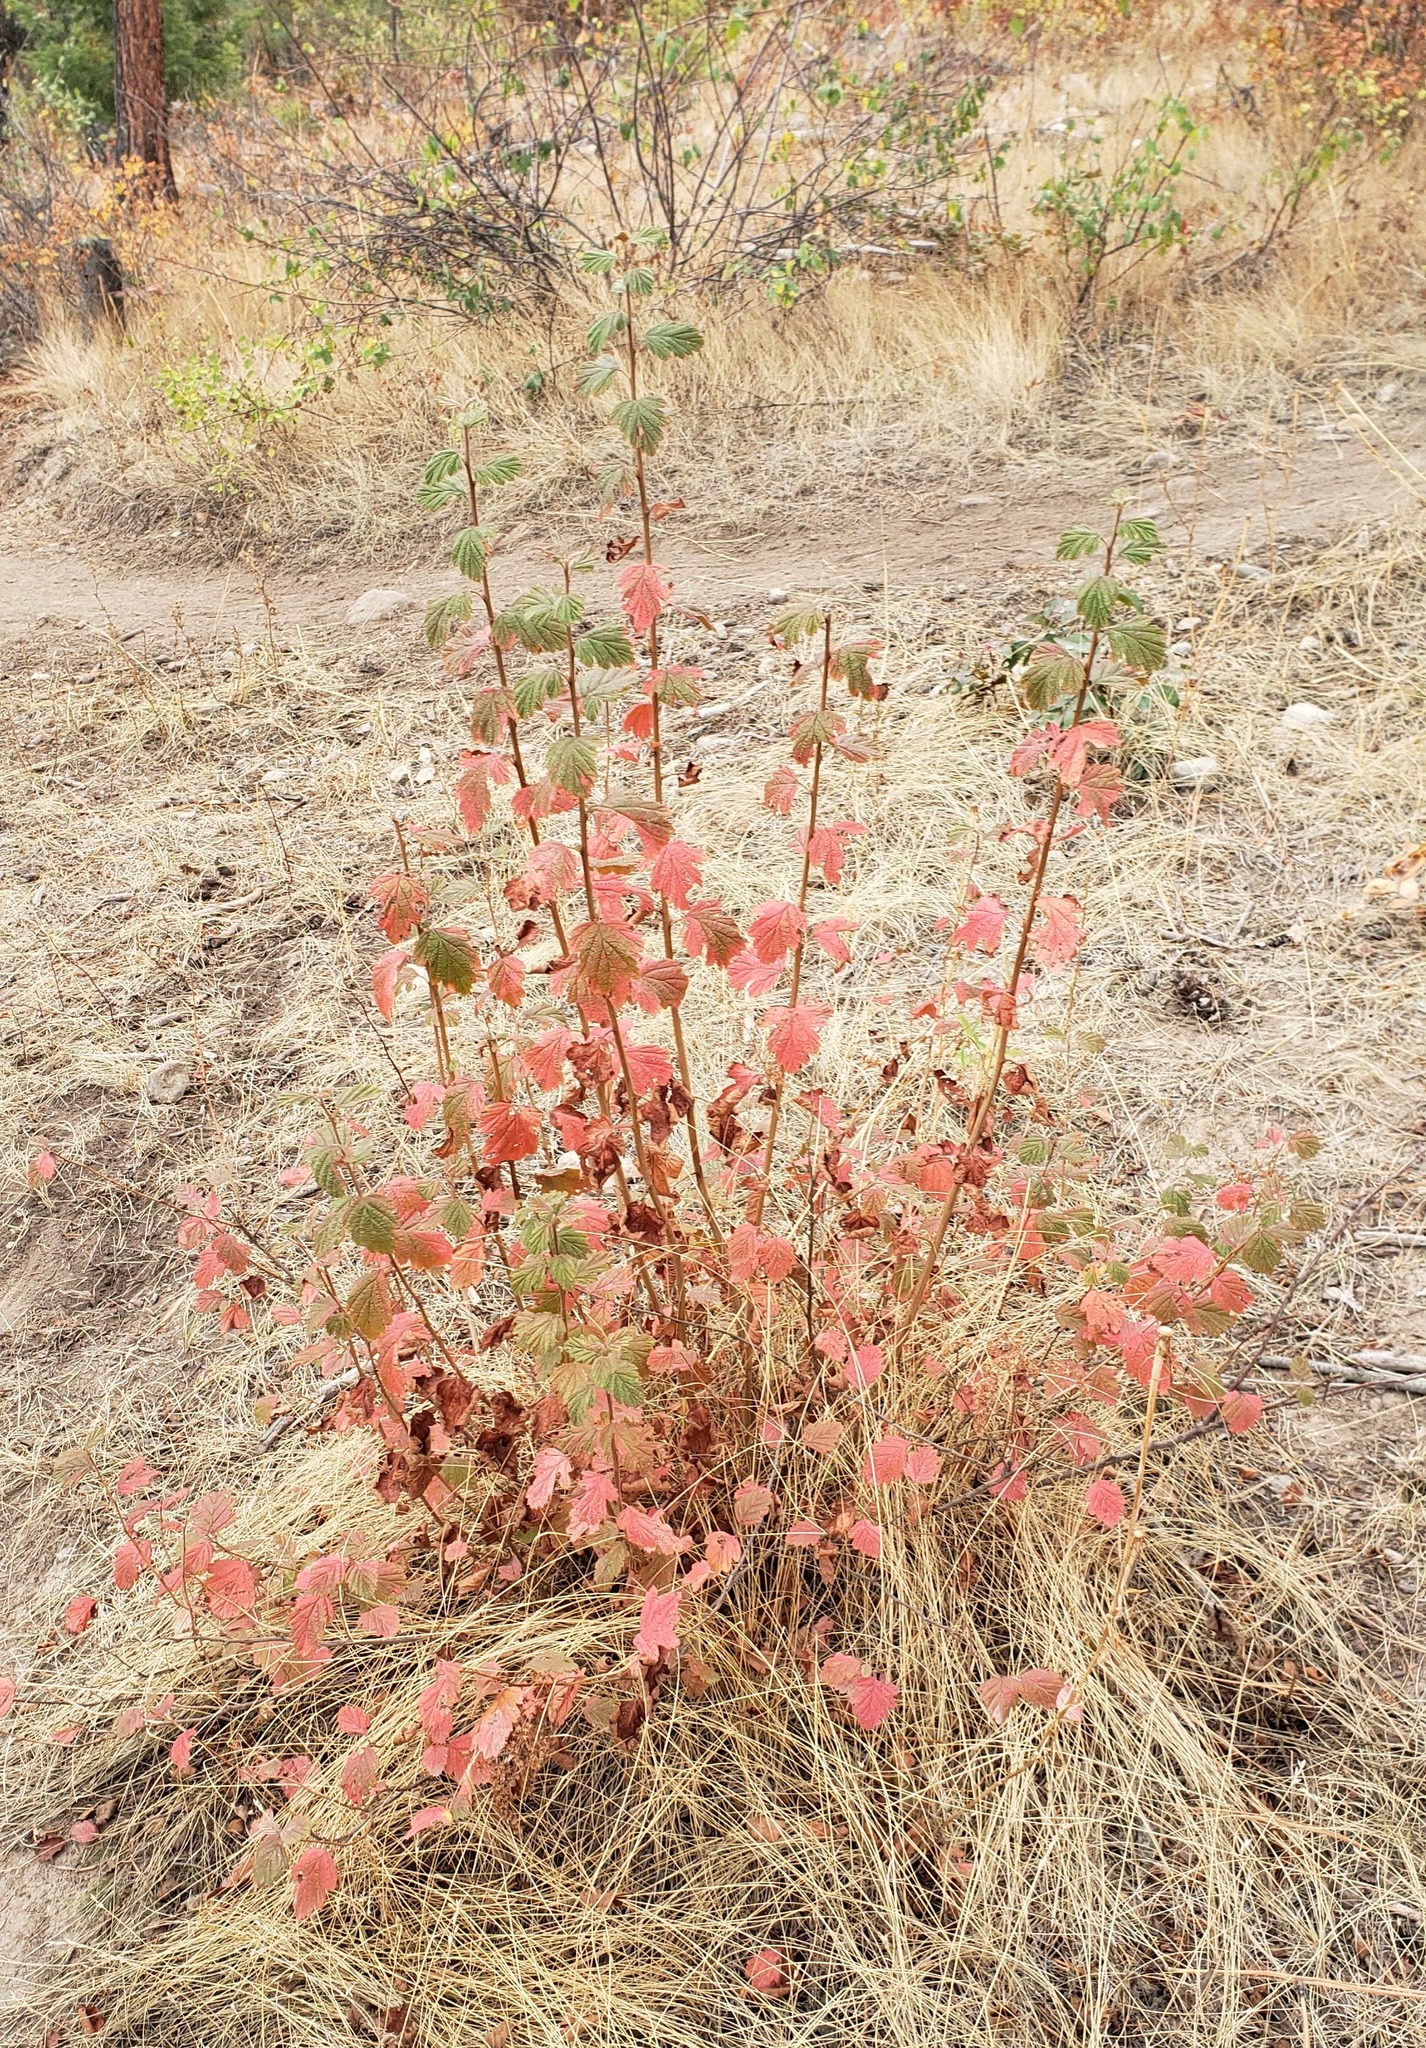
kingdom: Plantae
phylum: Tracheophyta
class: Magnoliopsida
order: Rosales
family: Rosaceae
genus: Holodiscus
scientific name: Holodiscus discolor
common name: Oceanspray
